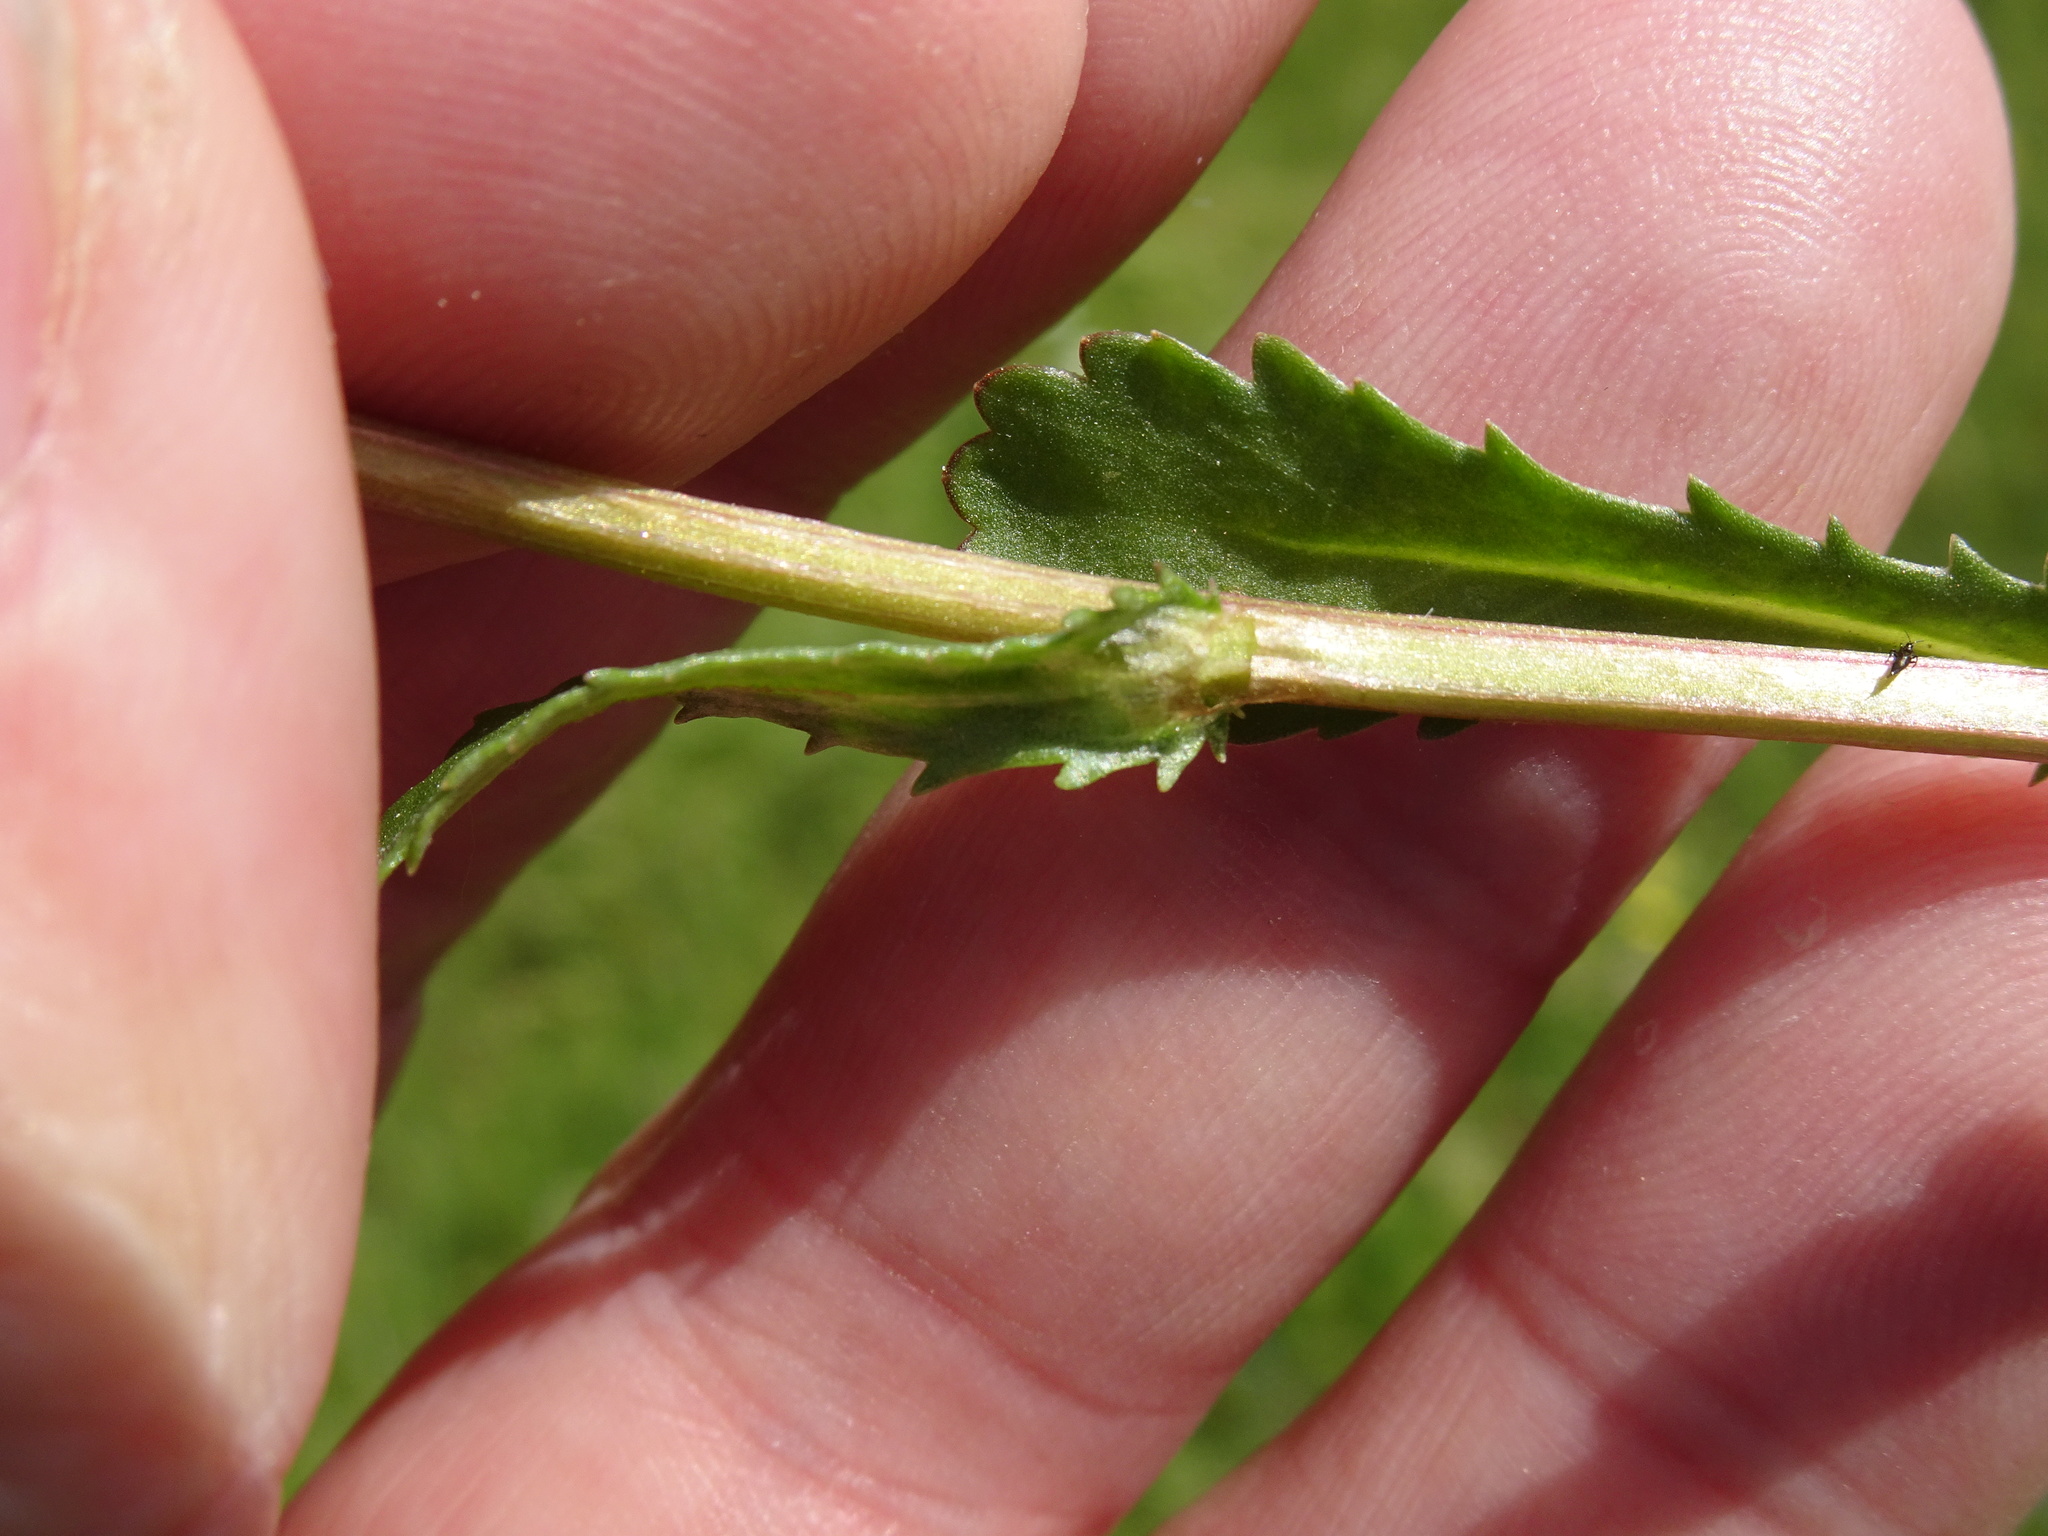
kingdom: Plantae
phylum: Tracheophyta
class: Magnoliopsida
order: Asterales
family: Asteraceae
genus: Leucanthemum
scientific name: Leucanthemum vulgare
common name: Oxeye daisy
